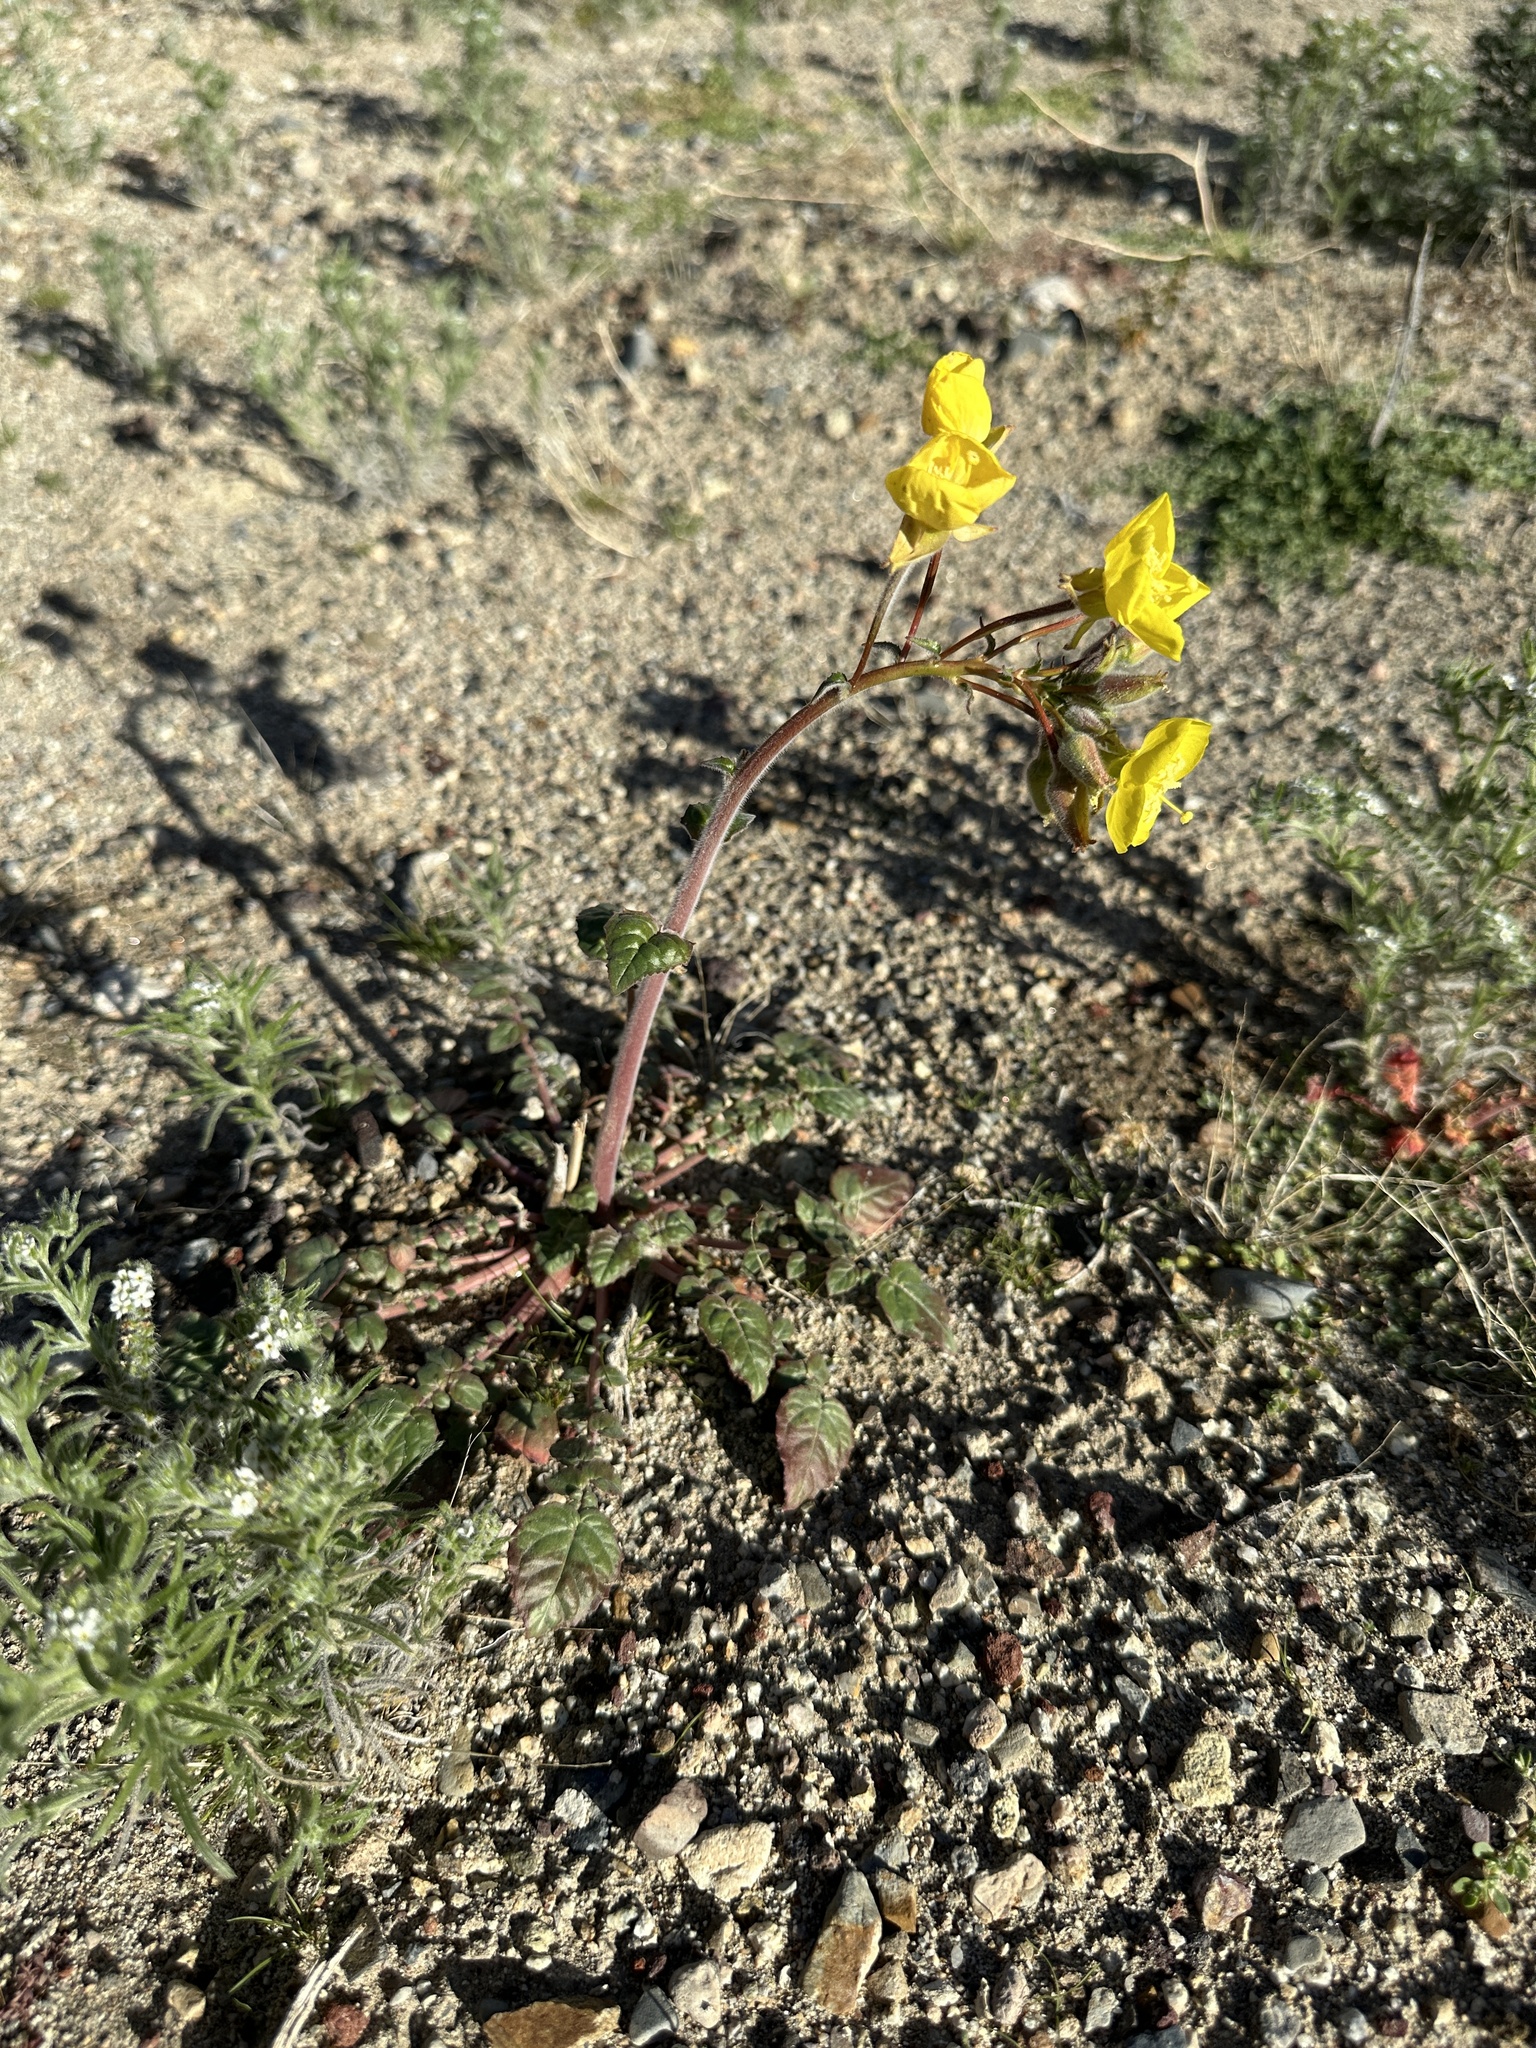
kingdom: Plantae
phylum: Tracheophyta
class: Magnoliopsida
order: Myrtales
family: Onagraceae
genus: Chylismia
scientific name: Chylismia brevipes
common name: Yellow cups
